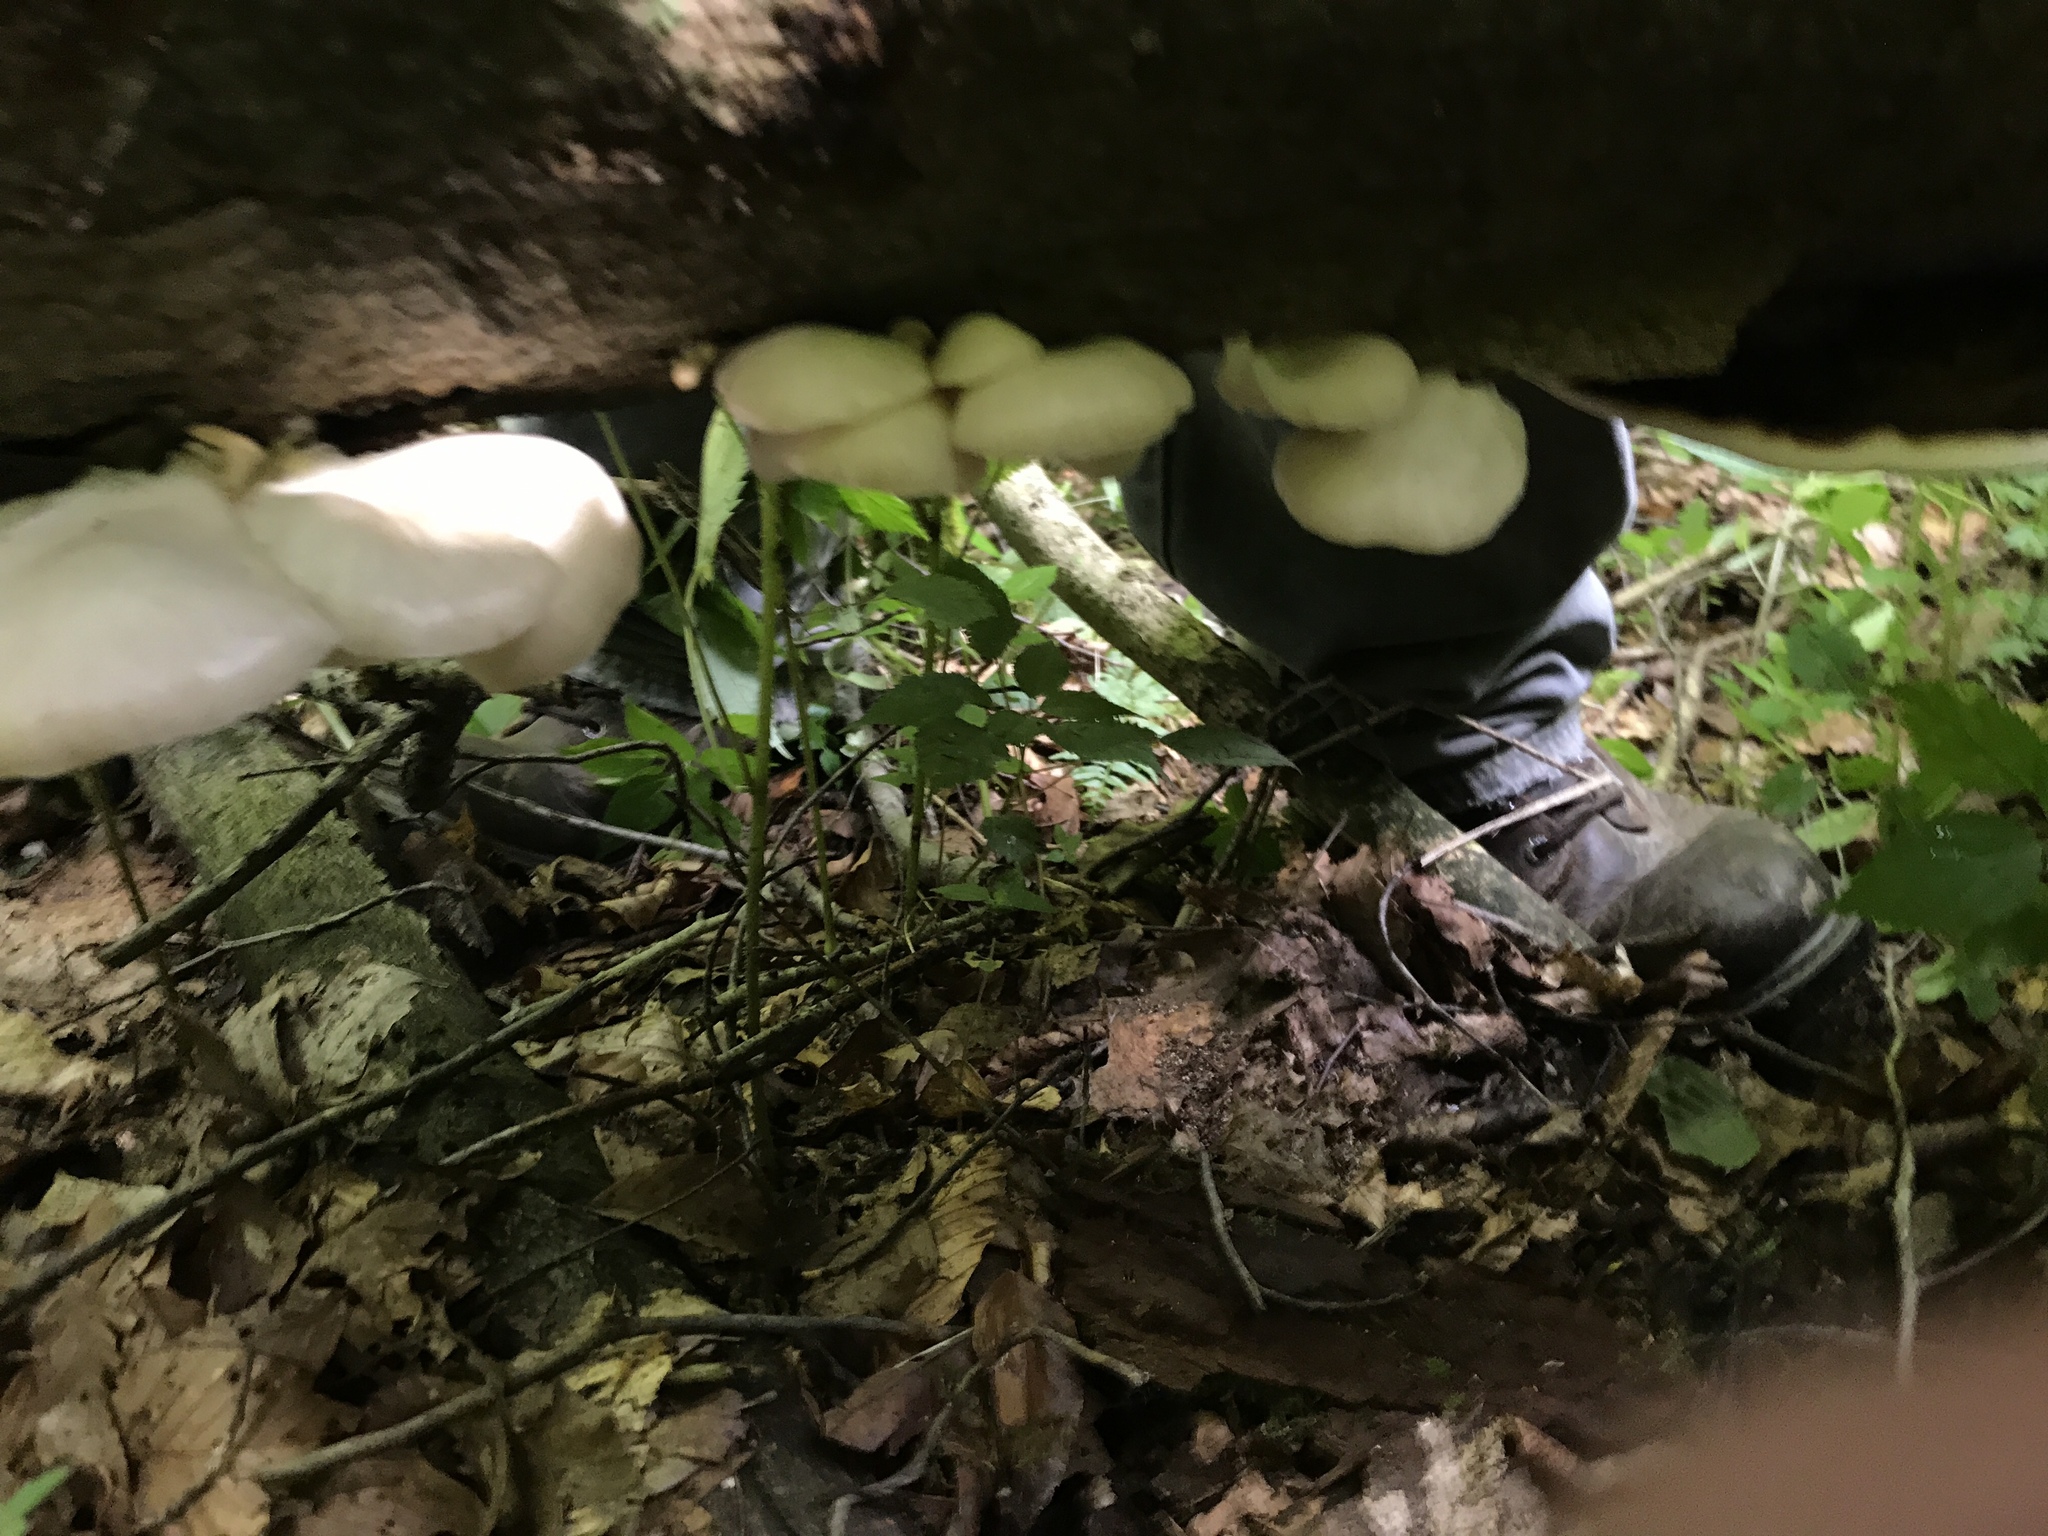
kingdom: Fungi
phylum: Basidiomycota
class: Agaricomycetes
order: Agaricales
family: Pleurotaceae
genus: Pleurotus
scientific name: Pleurotus pulmonarius
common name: Pale oyster
